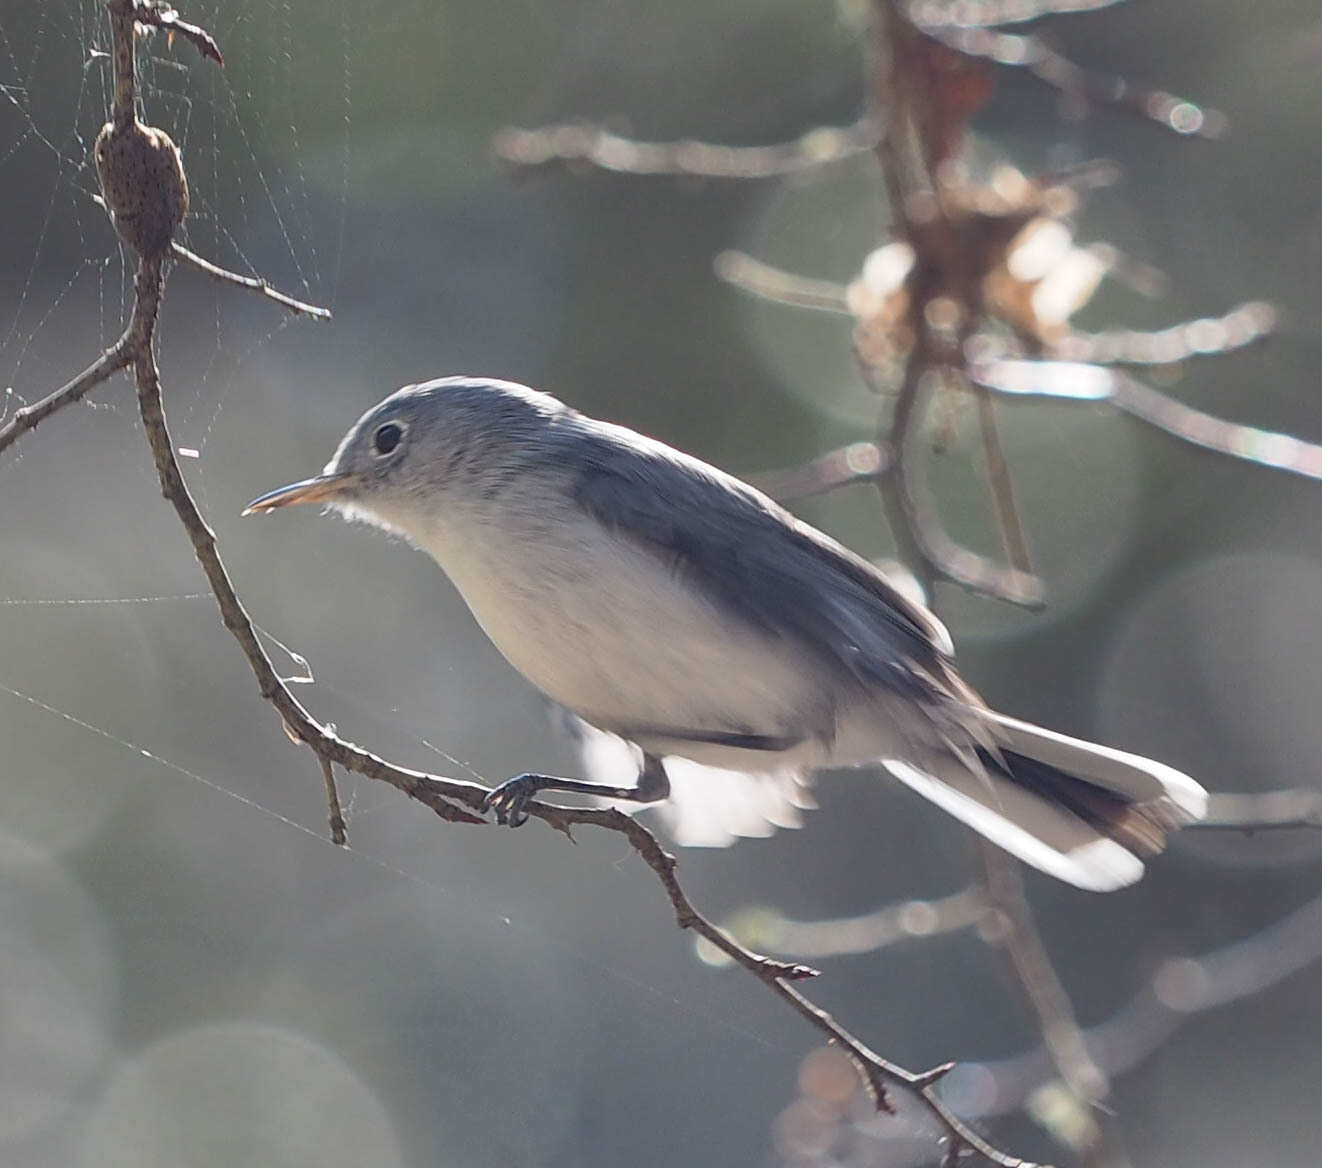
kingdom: Animalia
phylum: Chordata
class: Aves
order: Passeriformes
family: Polioptilidae
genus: Polioptila
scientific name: Polioptila caerulea
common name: Blue-gray gnatcatcher
